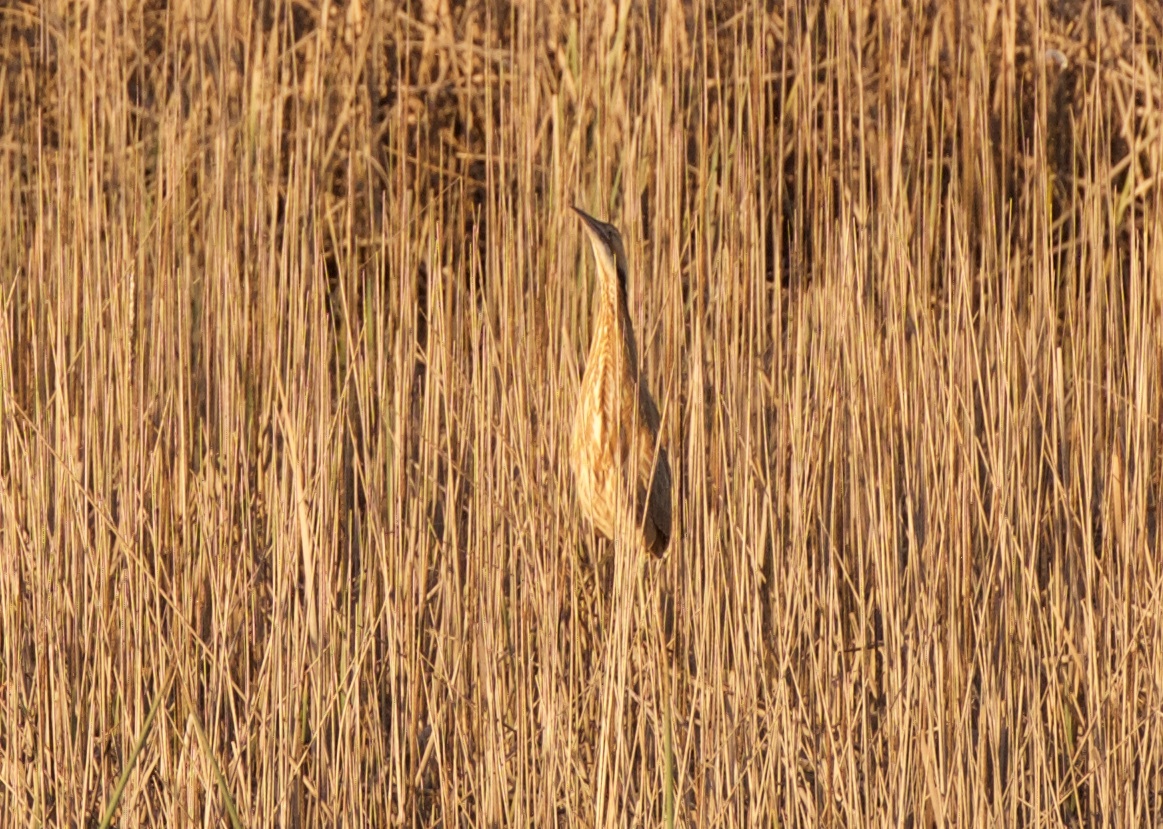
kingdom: Animalia
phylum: Chordata
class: Aves
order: Pelecaniformes
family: Ardeidae
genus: Botaurus
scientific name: Botaurus lentiginosus
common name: American bittern
